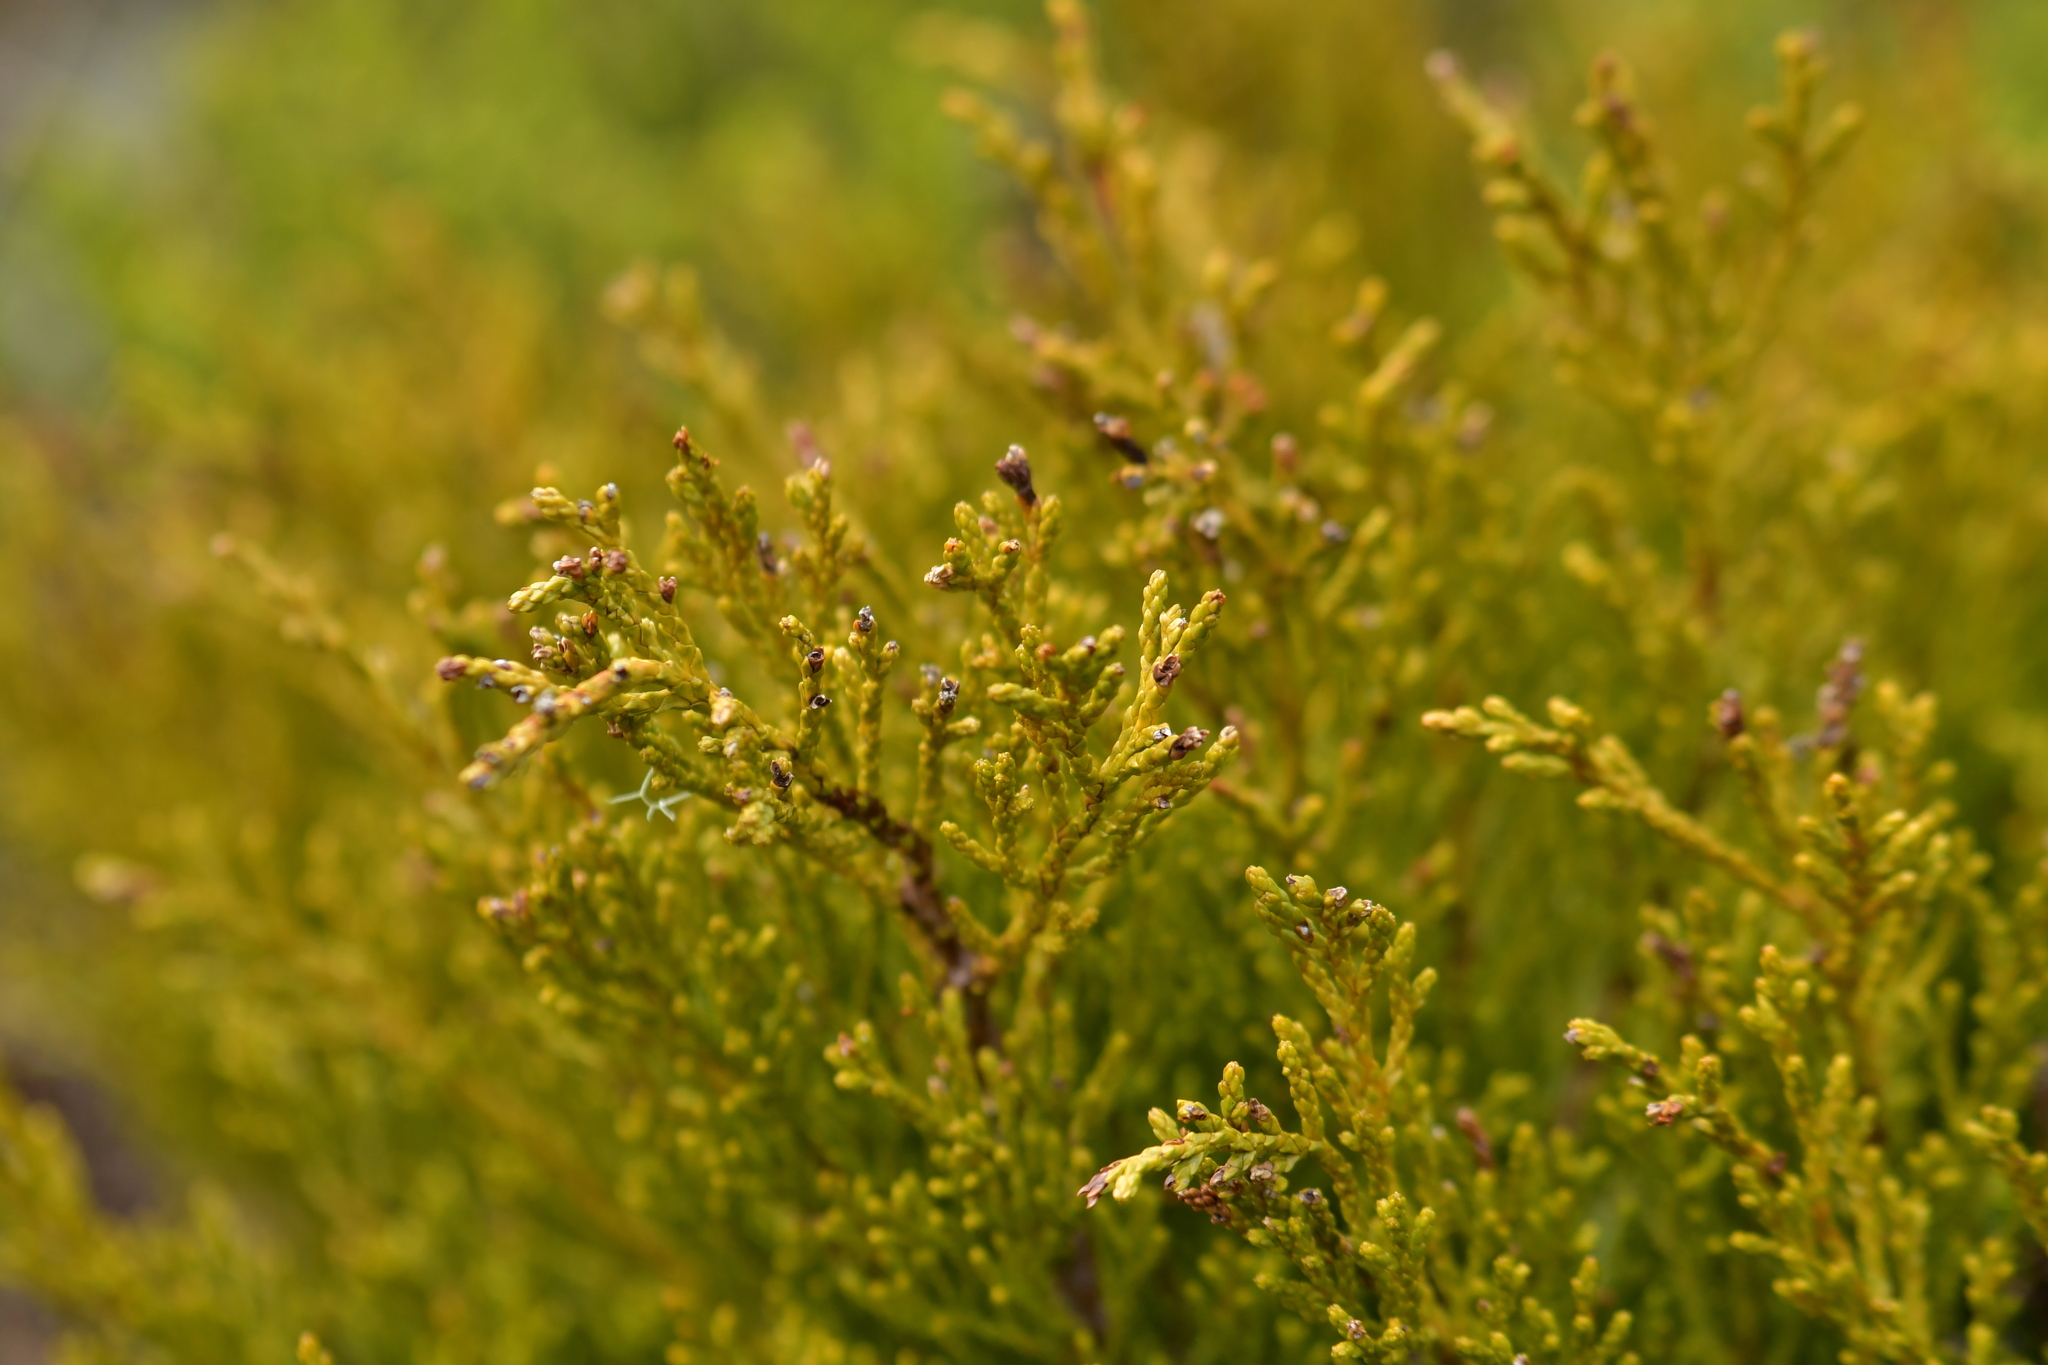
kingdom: Plantae
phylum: Tracheophyta
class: Pinopsida
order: Pinales
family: Podocarpaceae
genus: Halocarpus
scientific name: Halocarpus bidwillii
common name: Bog pine
